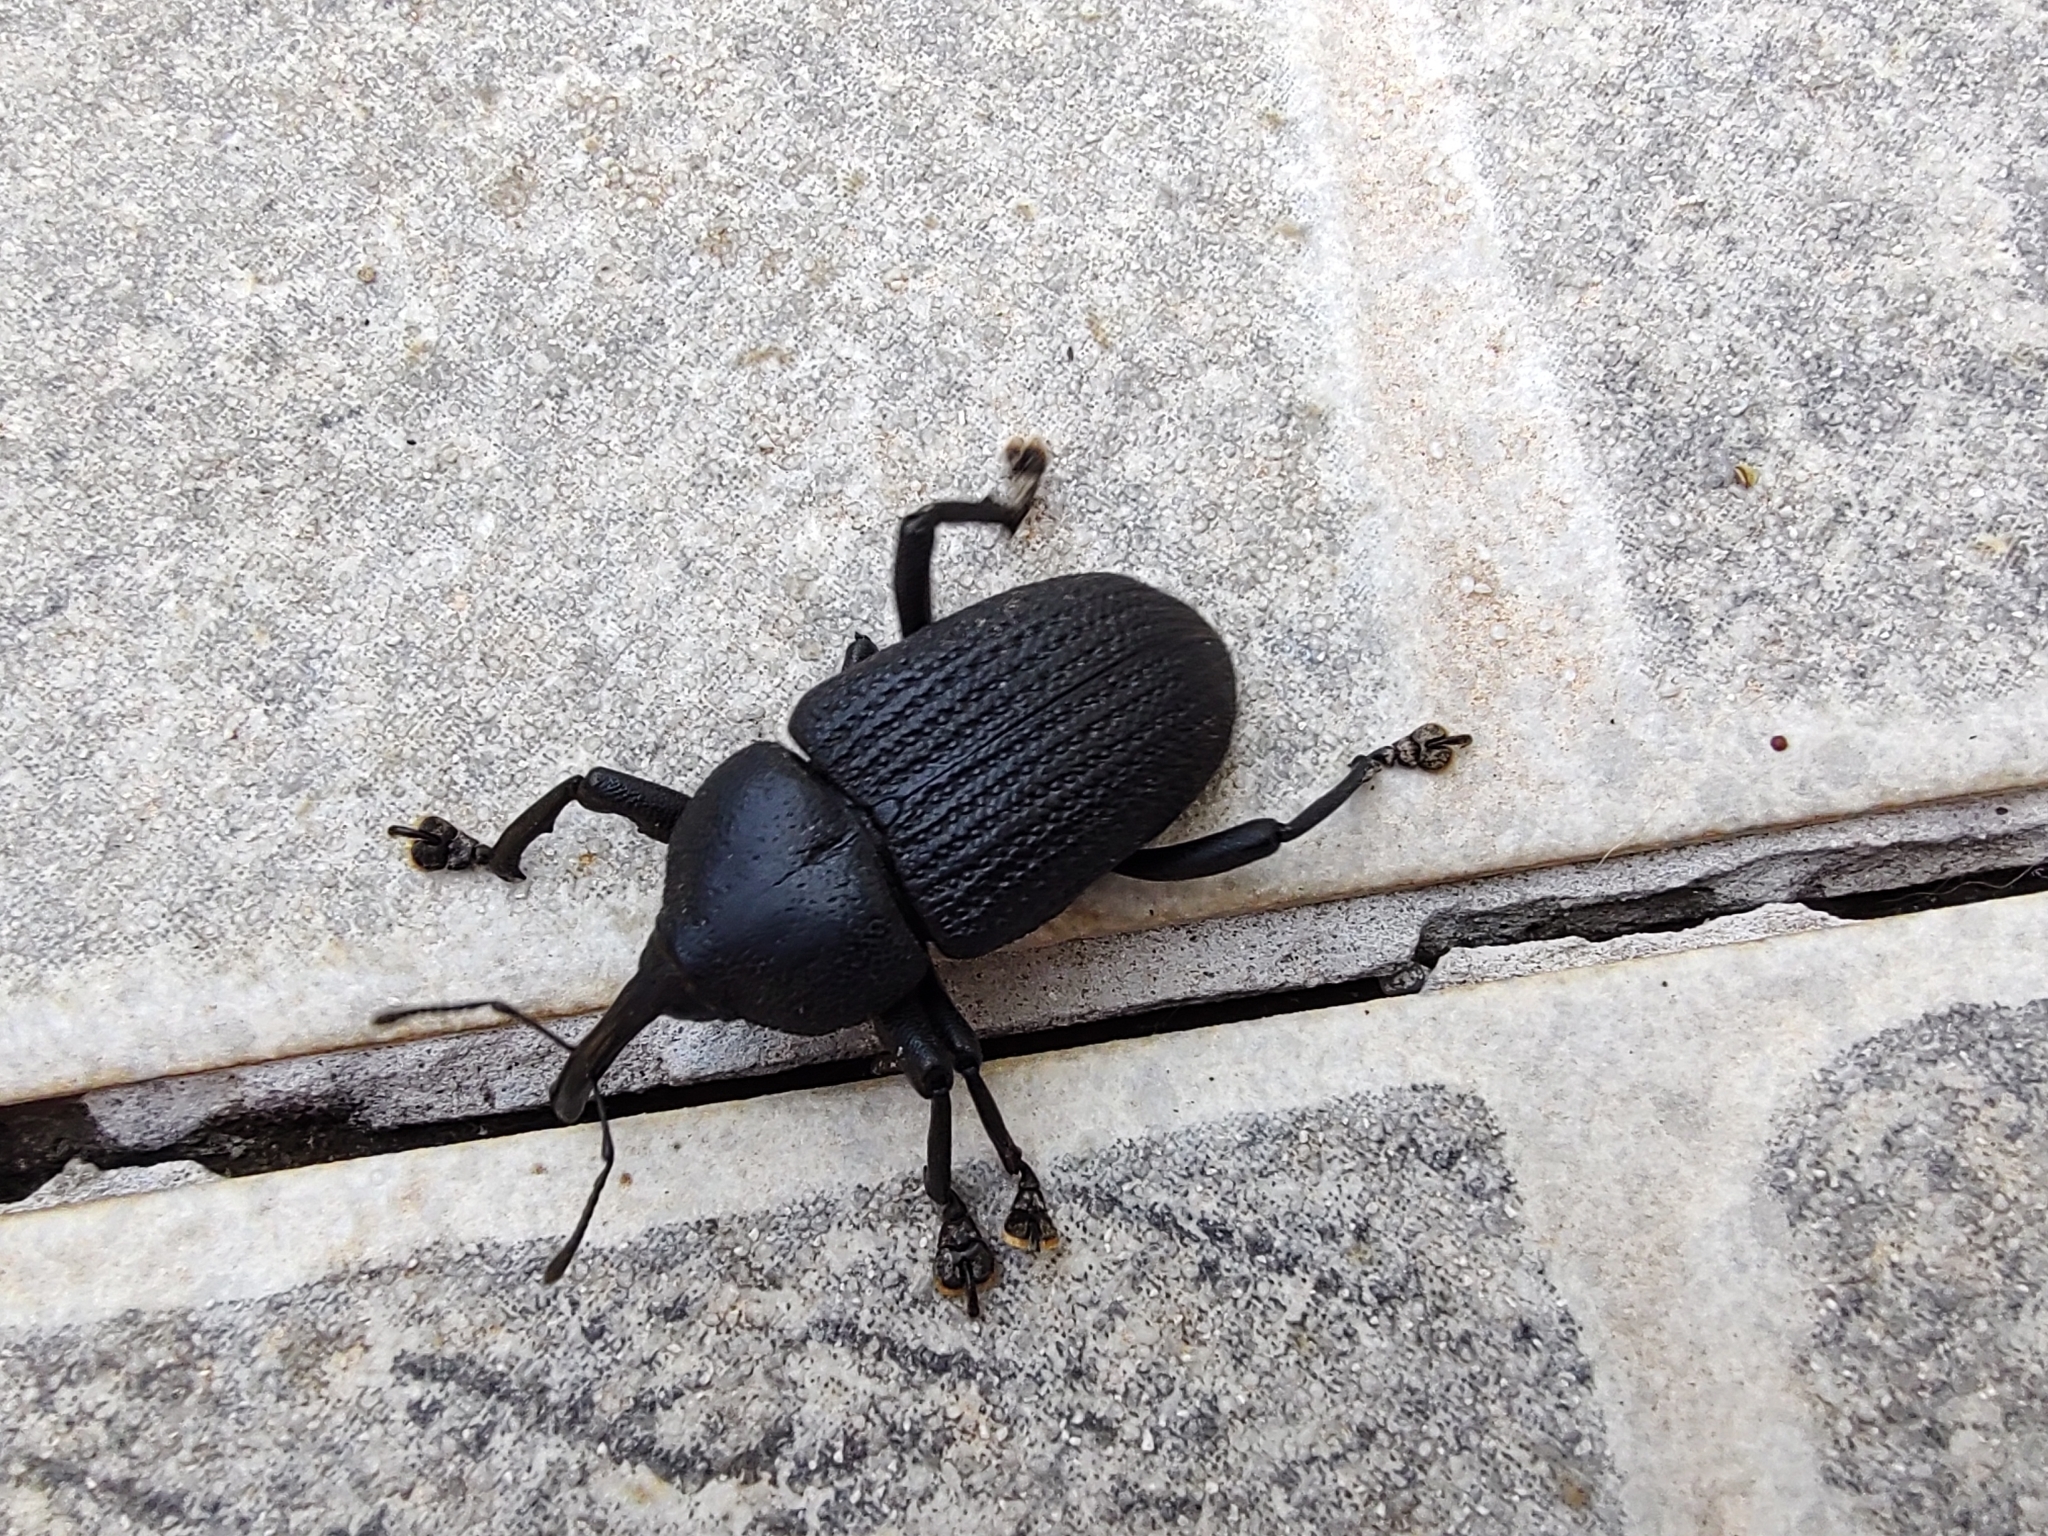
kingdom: Animalia
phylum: Arthropoda
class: Insecta
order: Coleoptera
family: Curculionidae
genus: Homalinotus
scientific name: Homalinotus coriaceus
